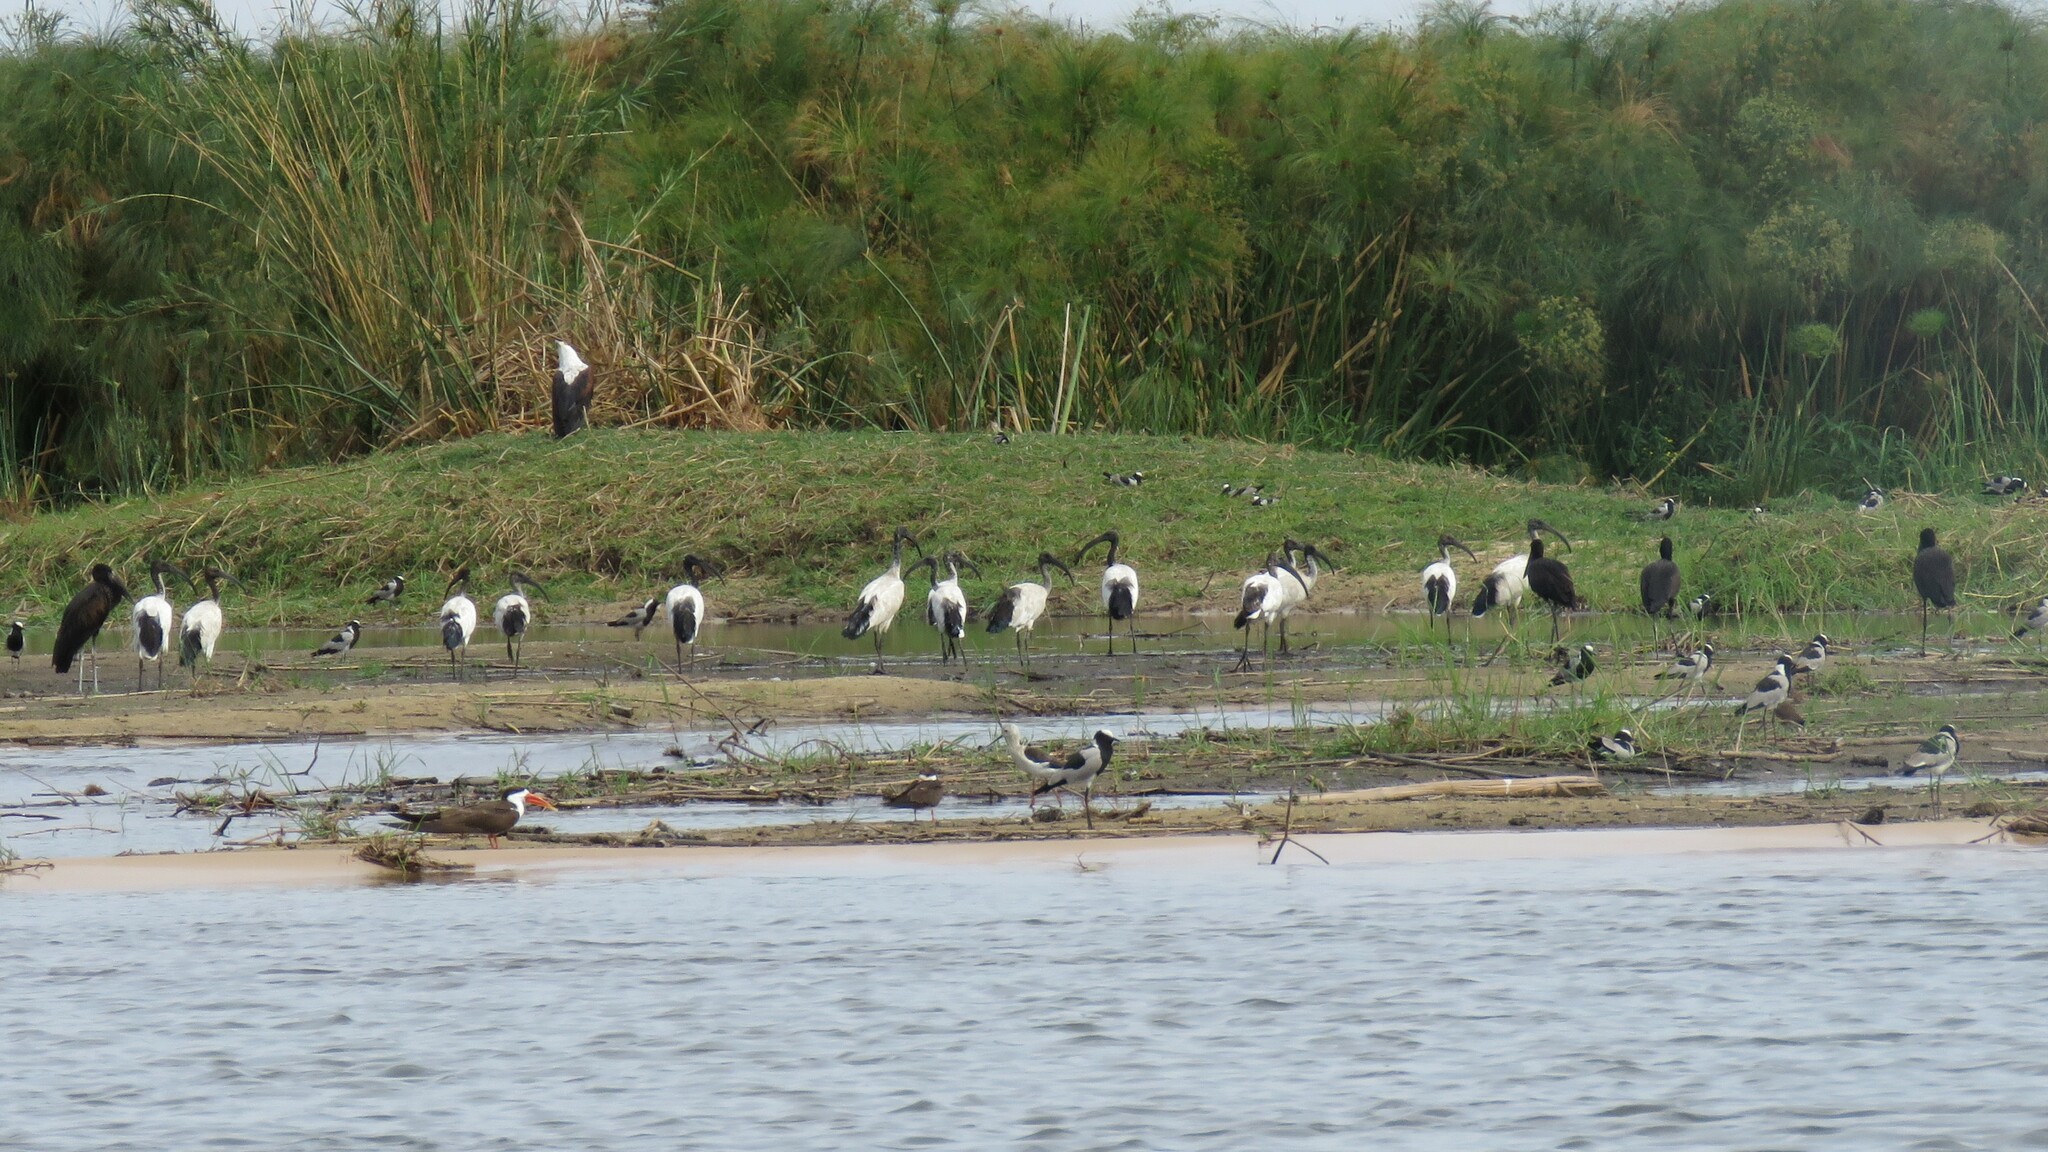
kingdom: Animalia
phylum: Chordata
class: Aves
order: Pelecaniformes
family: Threskiornithidae
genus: Threskiornis
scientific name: Threskiornis aethiopicus
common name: Sacred ibis
